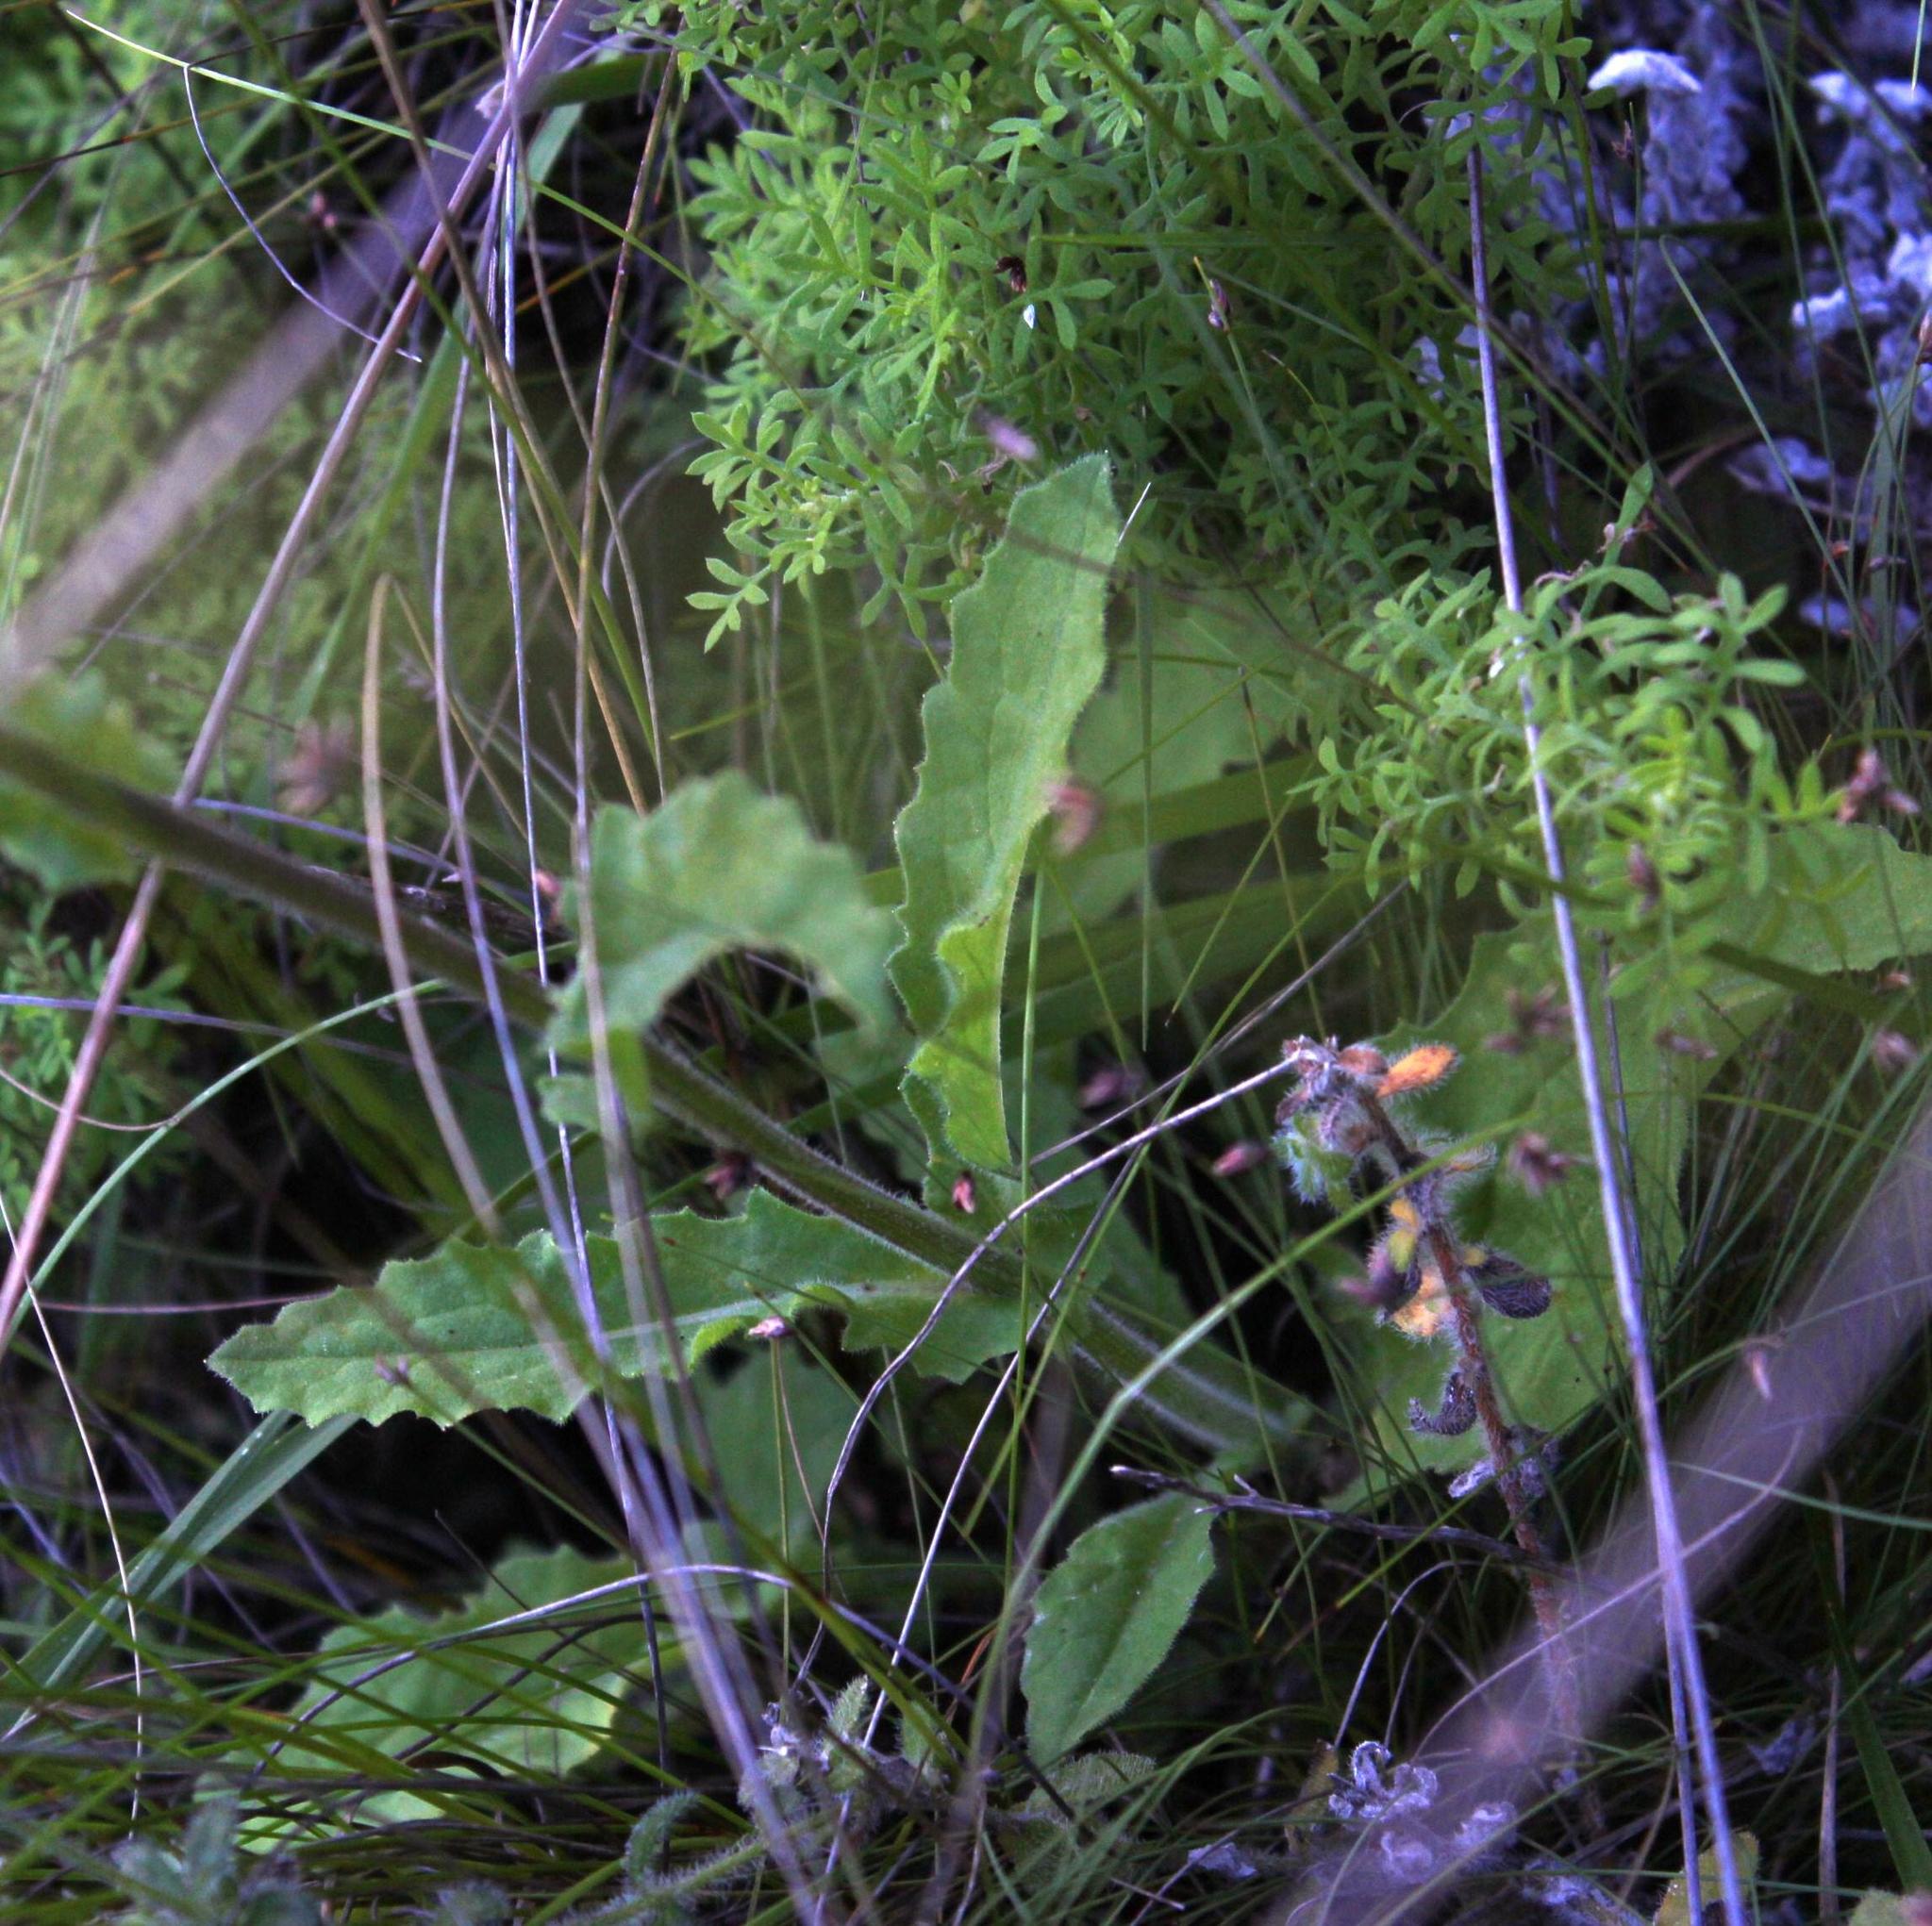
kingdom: Plantae
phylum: Tracheophyta
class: Magnoliopsida
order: Asterales
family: Asteraceae
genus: Senecio
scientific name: Senecio erubescens
